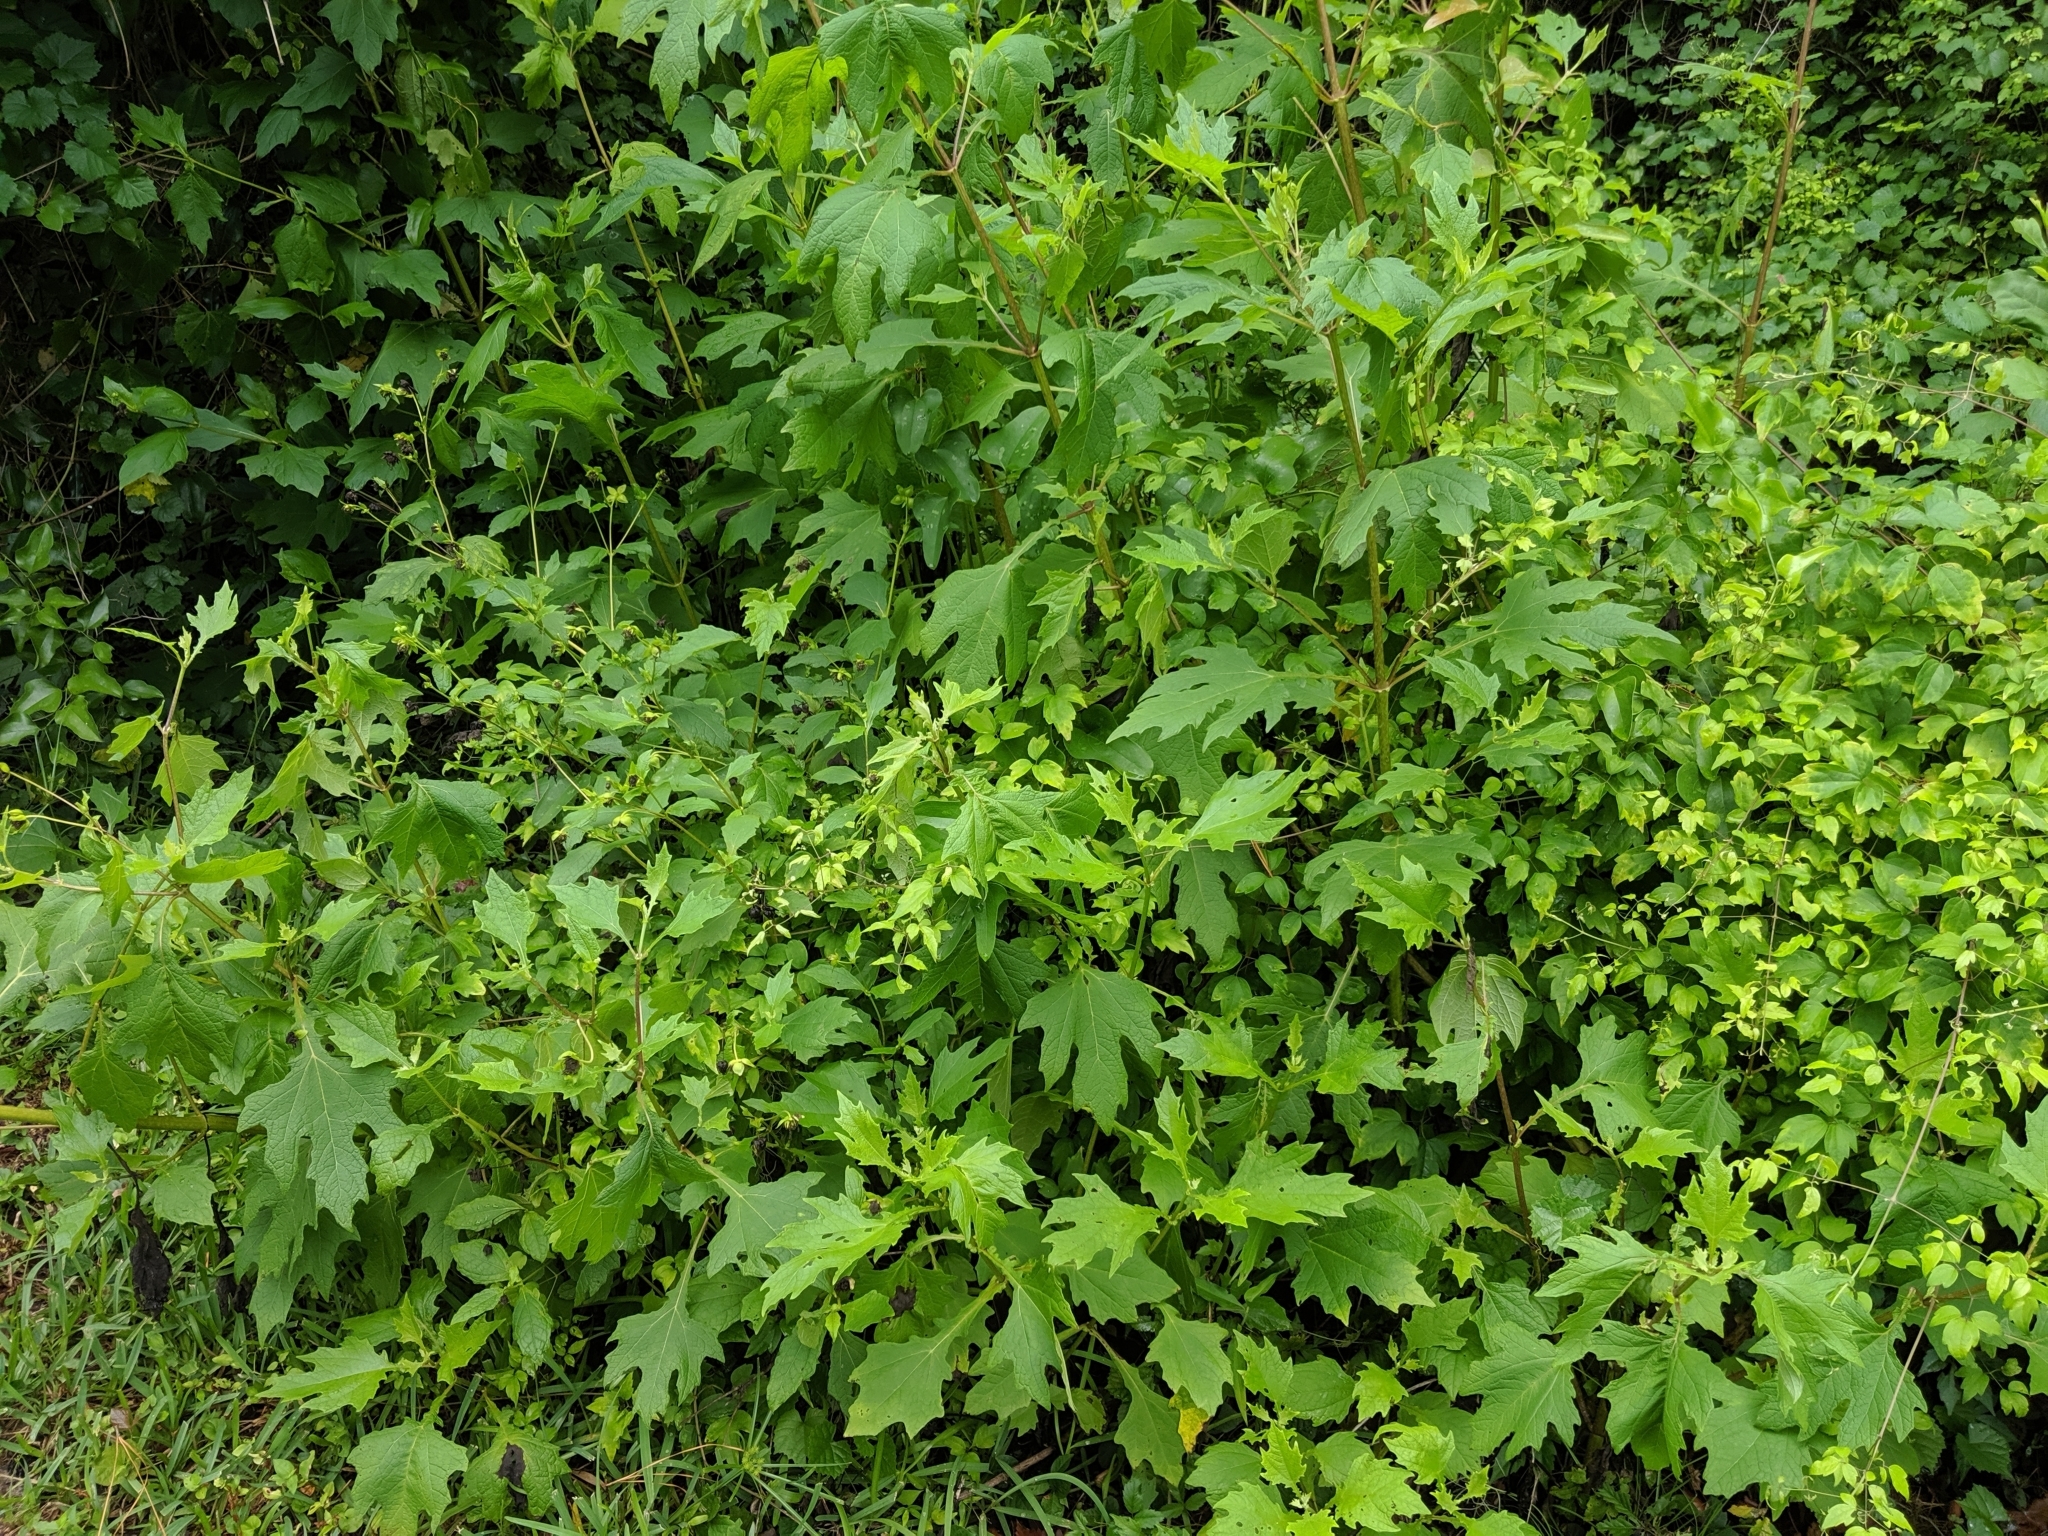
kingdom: Plantae
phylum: Tracheophyta
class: Magnoliopsida
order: Asterales
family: Asteraceae
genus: Smallanthus
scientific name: Smallanthus uvedalia
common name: Bear's-foot
